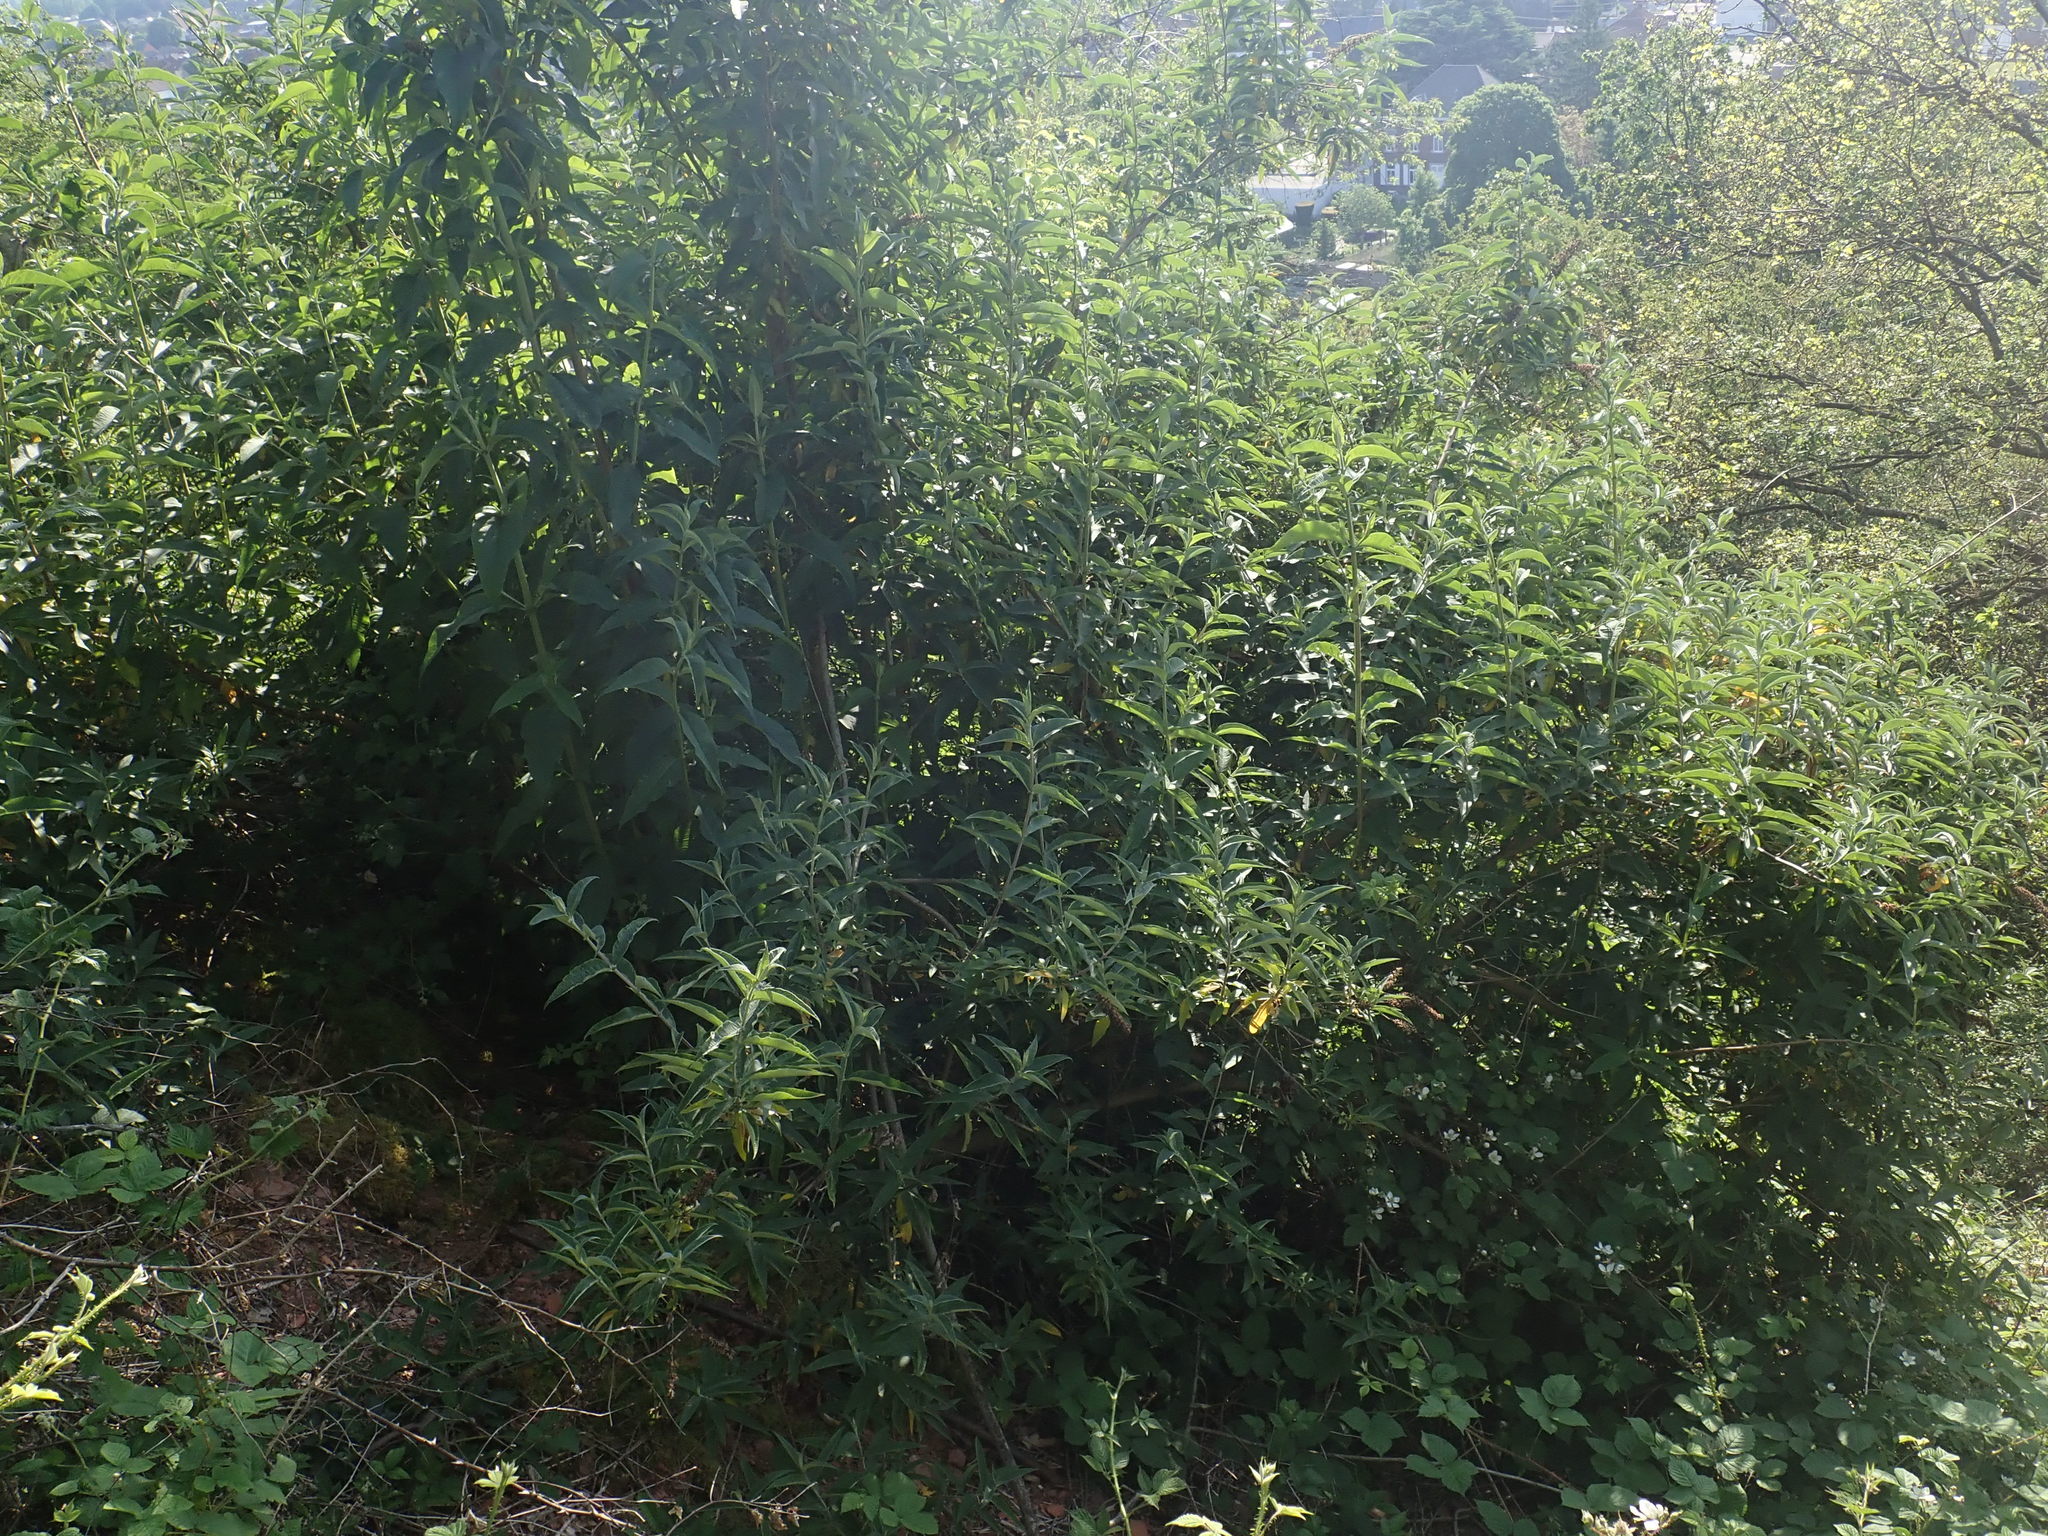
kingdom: Plantae
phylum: Tracheophyta
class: Magnoliopsida
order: Lamiales
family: Scrophulariaceae
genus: Buddleja
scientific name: Buddleja davidii
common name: Butterfly-bush
